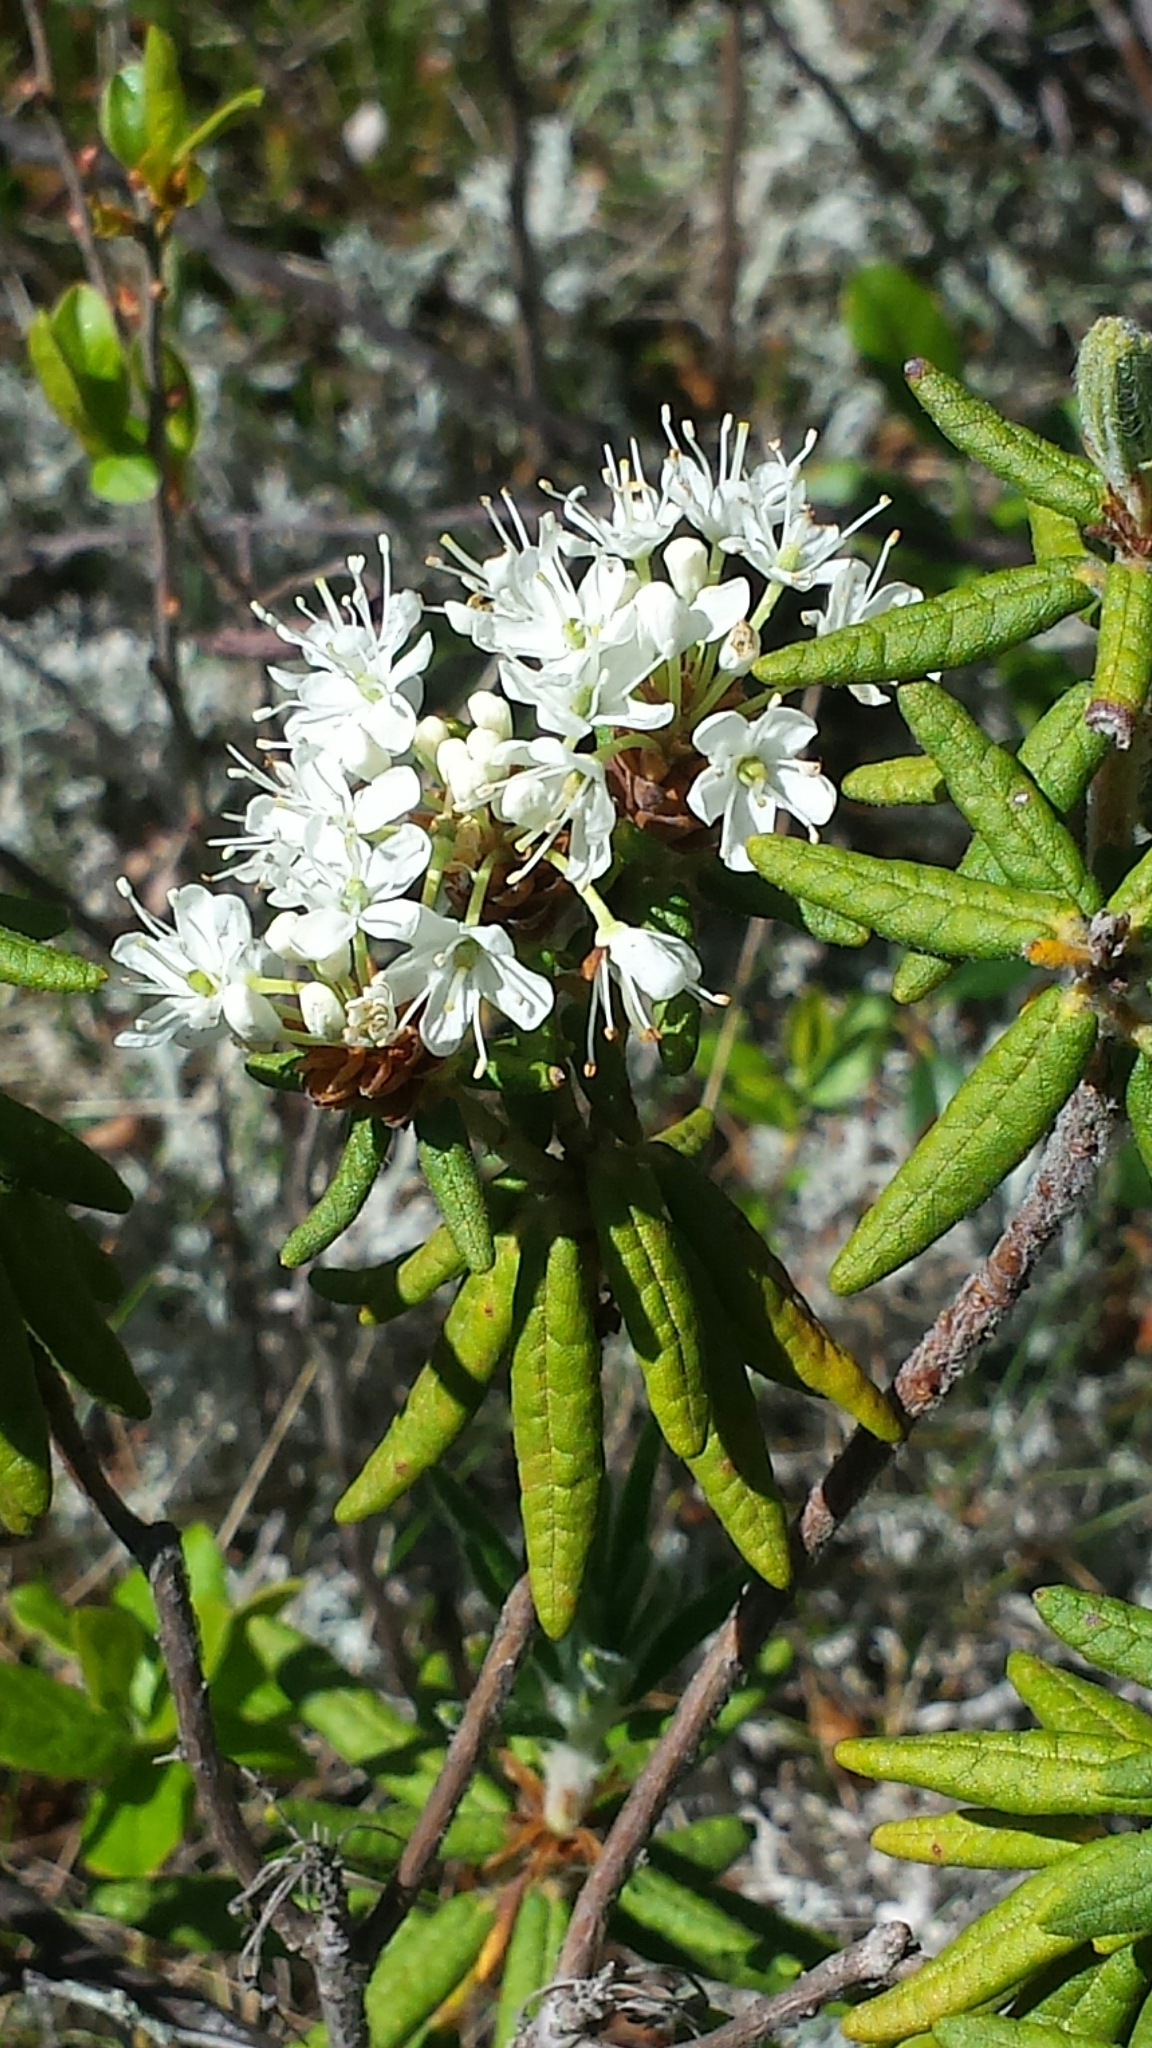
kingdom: Plantae
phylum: Tracheophyta
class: Magnoliopsida
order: Ericales
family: Ericaceae
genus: Rhododendron
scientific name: Rhododendron groenlandicum
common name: Bog labrador tea
